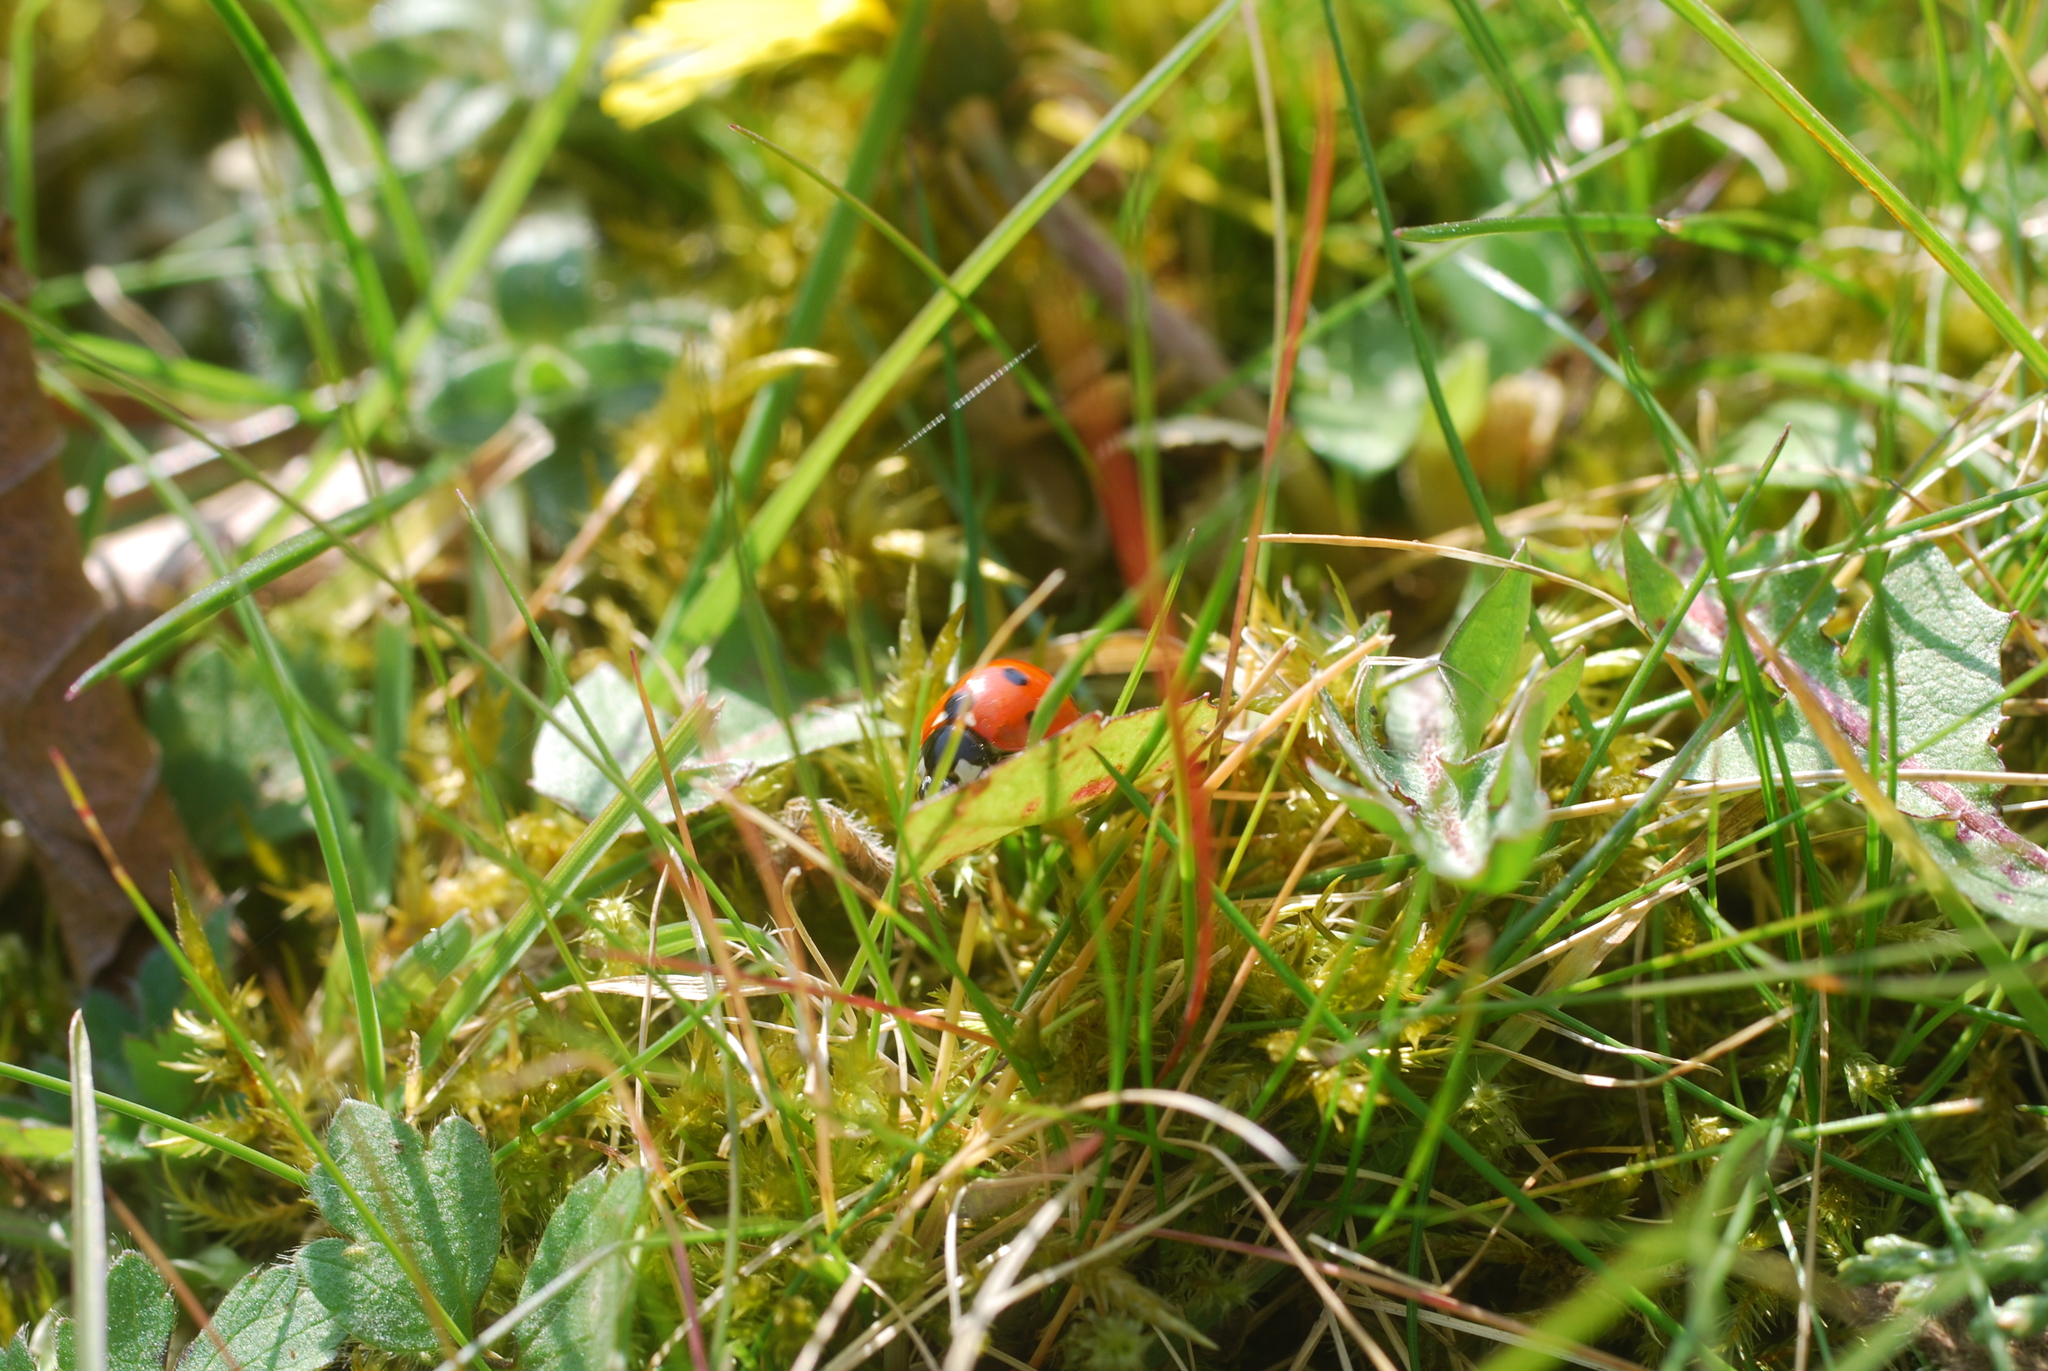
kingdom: Animalia
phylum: Arthropoda
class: Insecta
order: Coleoptera
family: Coccinellidae
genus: Coccinella
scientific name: Coccinella septempunctata
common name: Sevenspotted lady beetle
